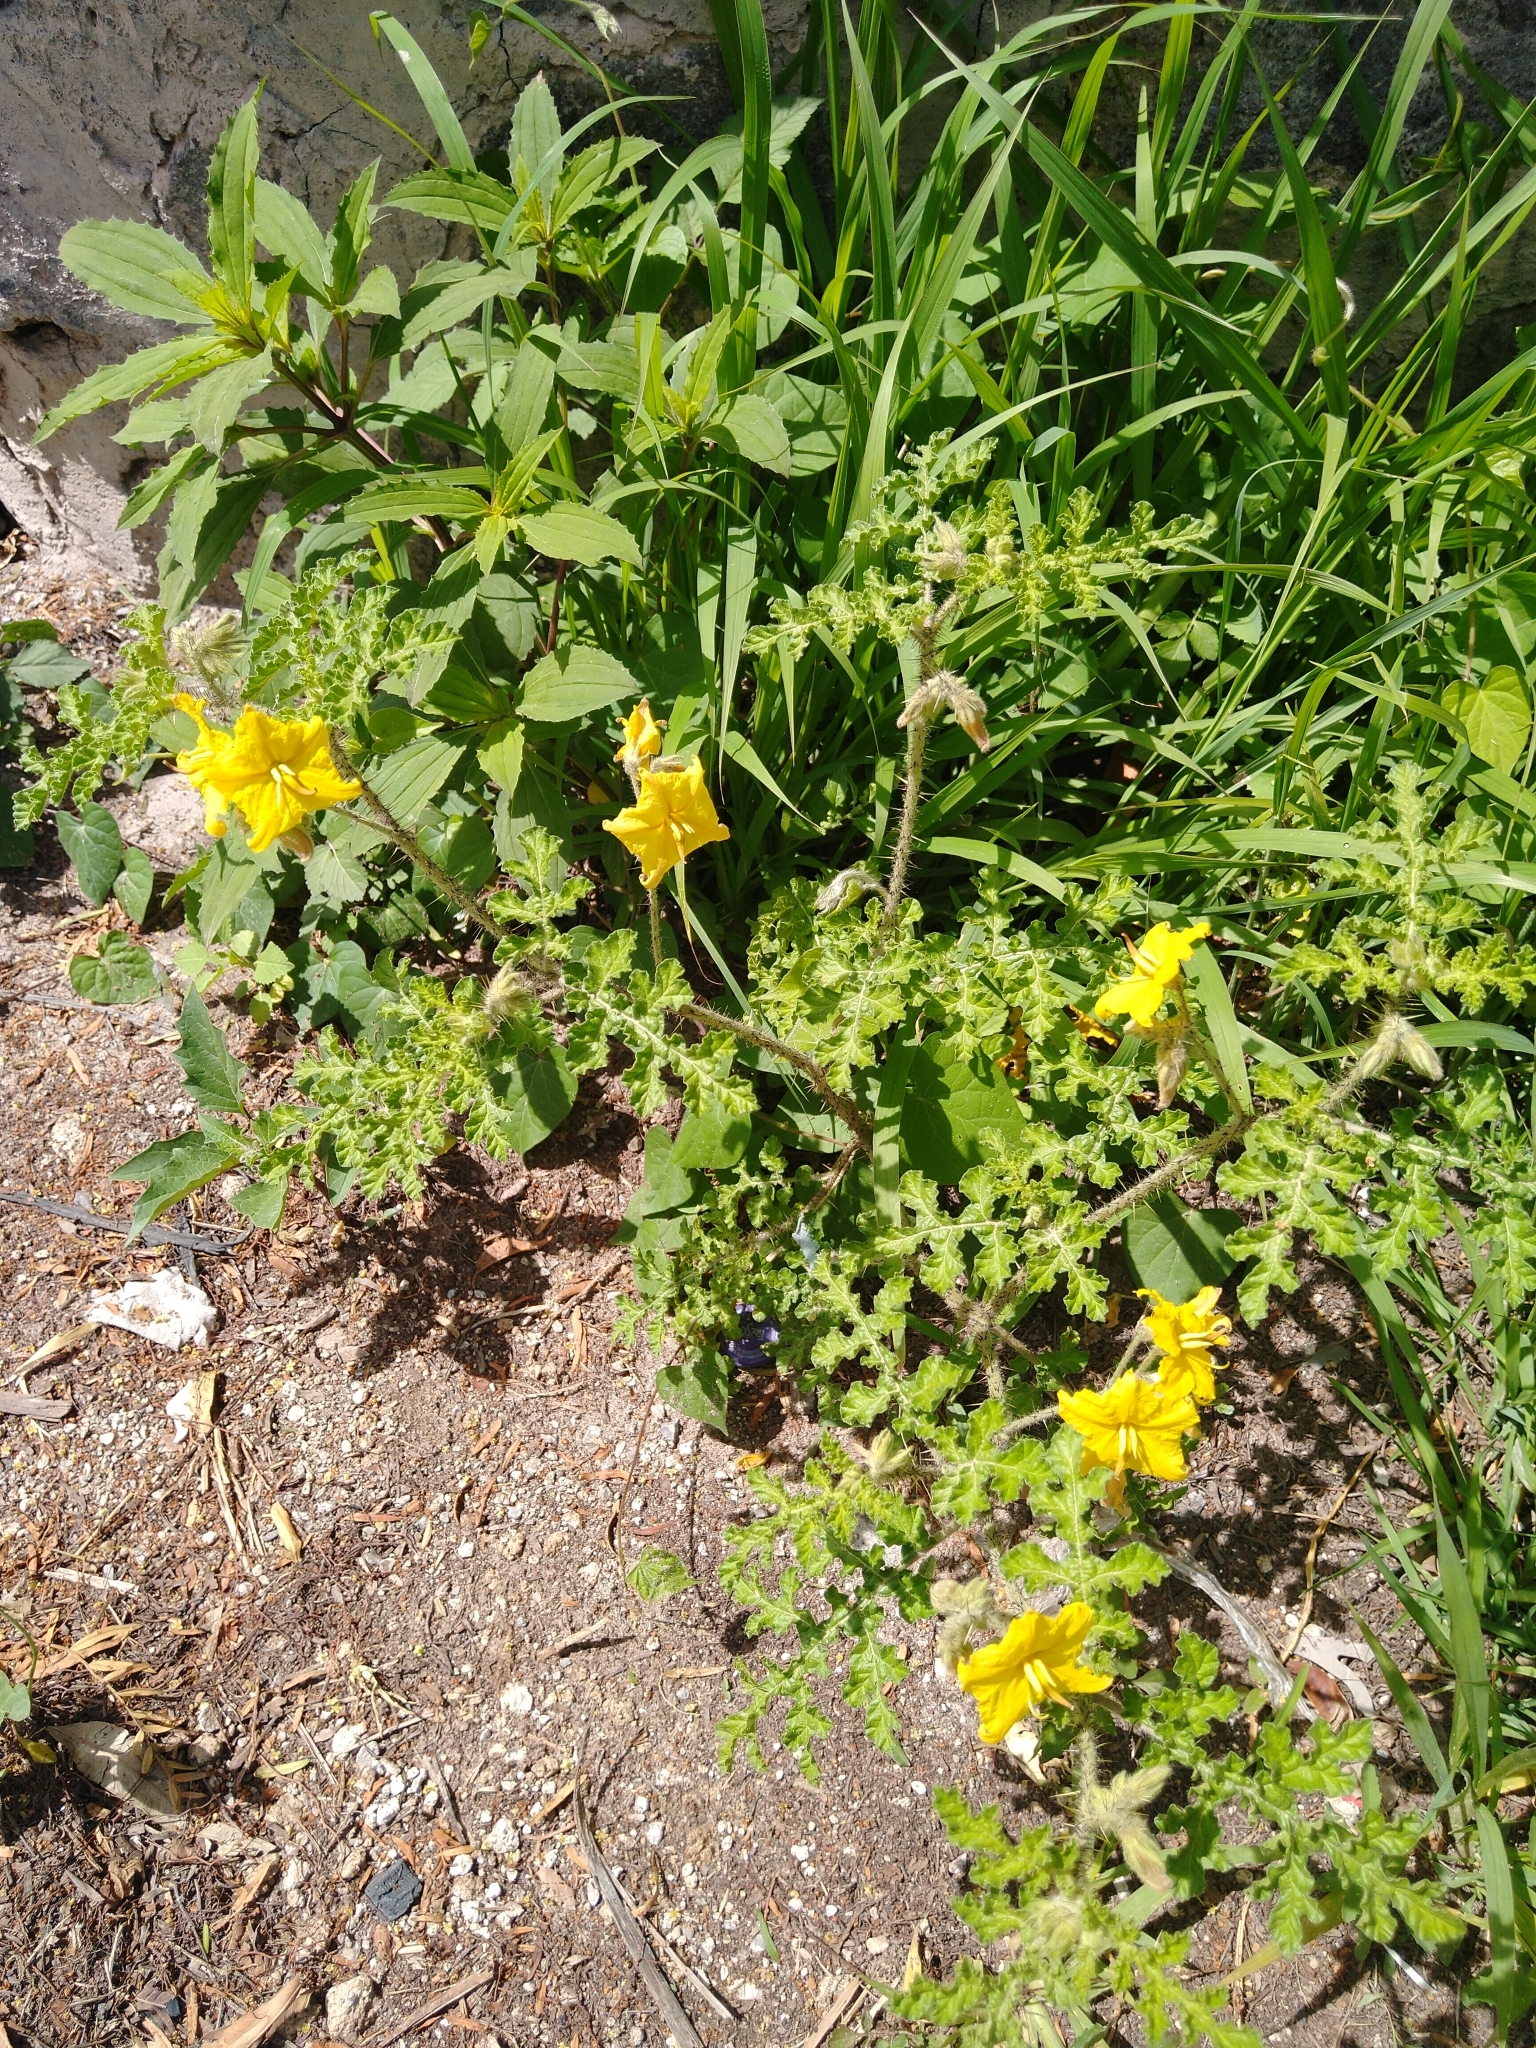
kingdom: Plantae
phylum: Tracheophyta
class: Magnoliopsida
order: Solanales
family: Solanaceae
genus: Solanum
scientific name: Solanum angustifolium
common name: Buffalobur nightshade
